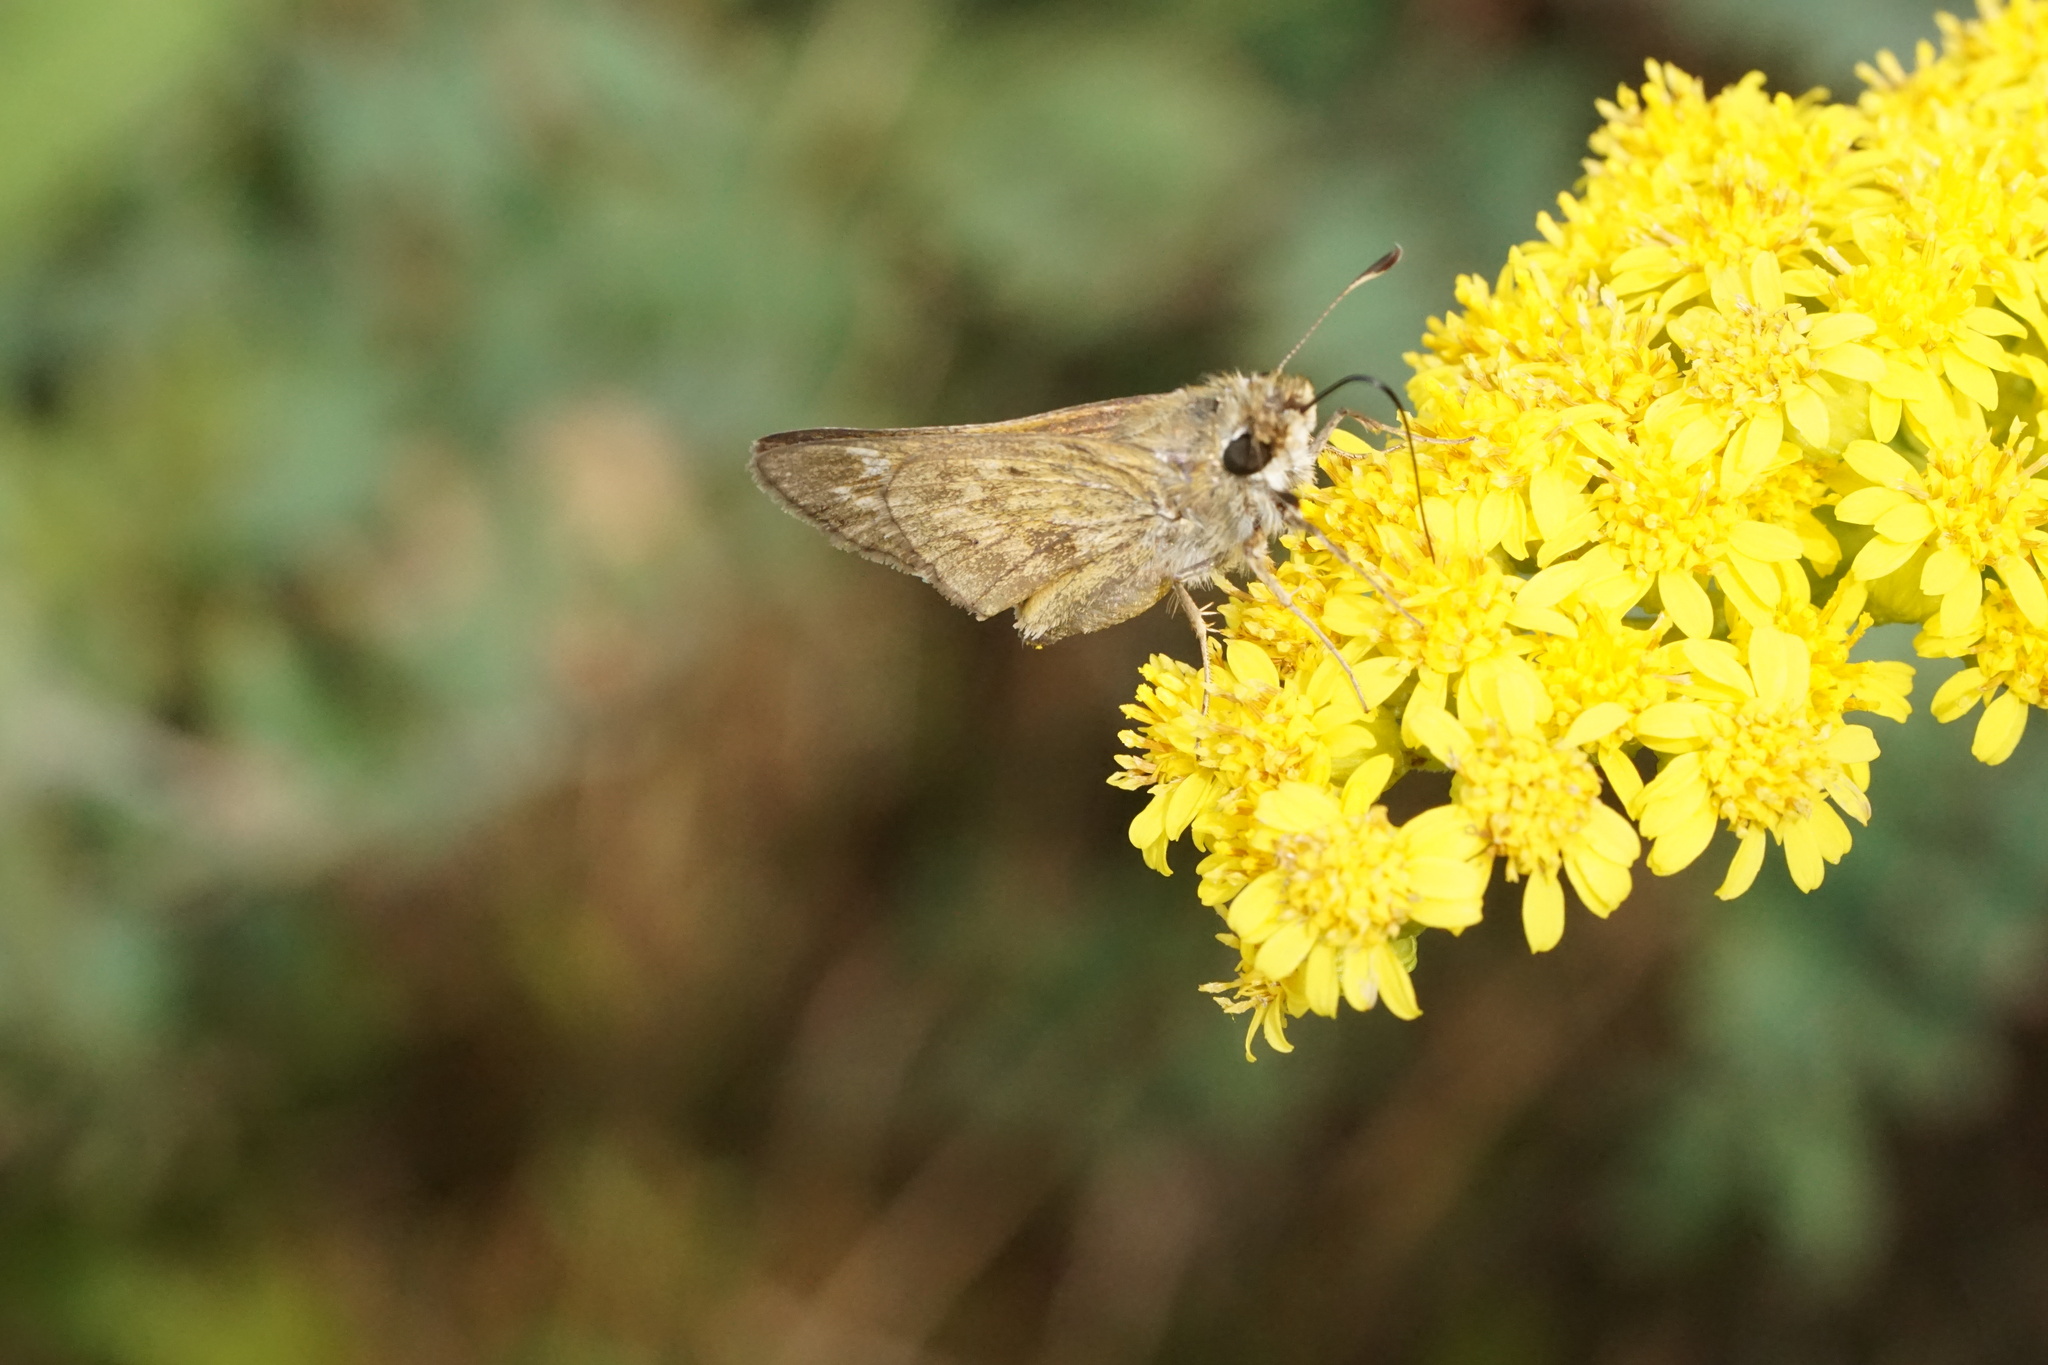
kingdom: Animalia
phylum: Arthropoda
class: Insecta
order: Lepidoptera
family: Hesperiidae
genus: Atalopedes
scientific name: Atalopedes
